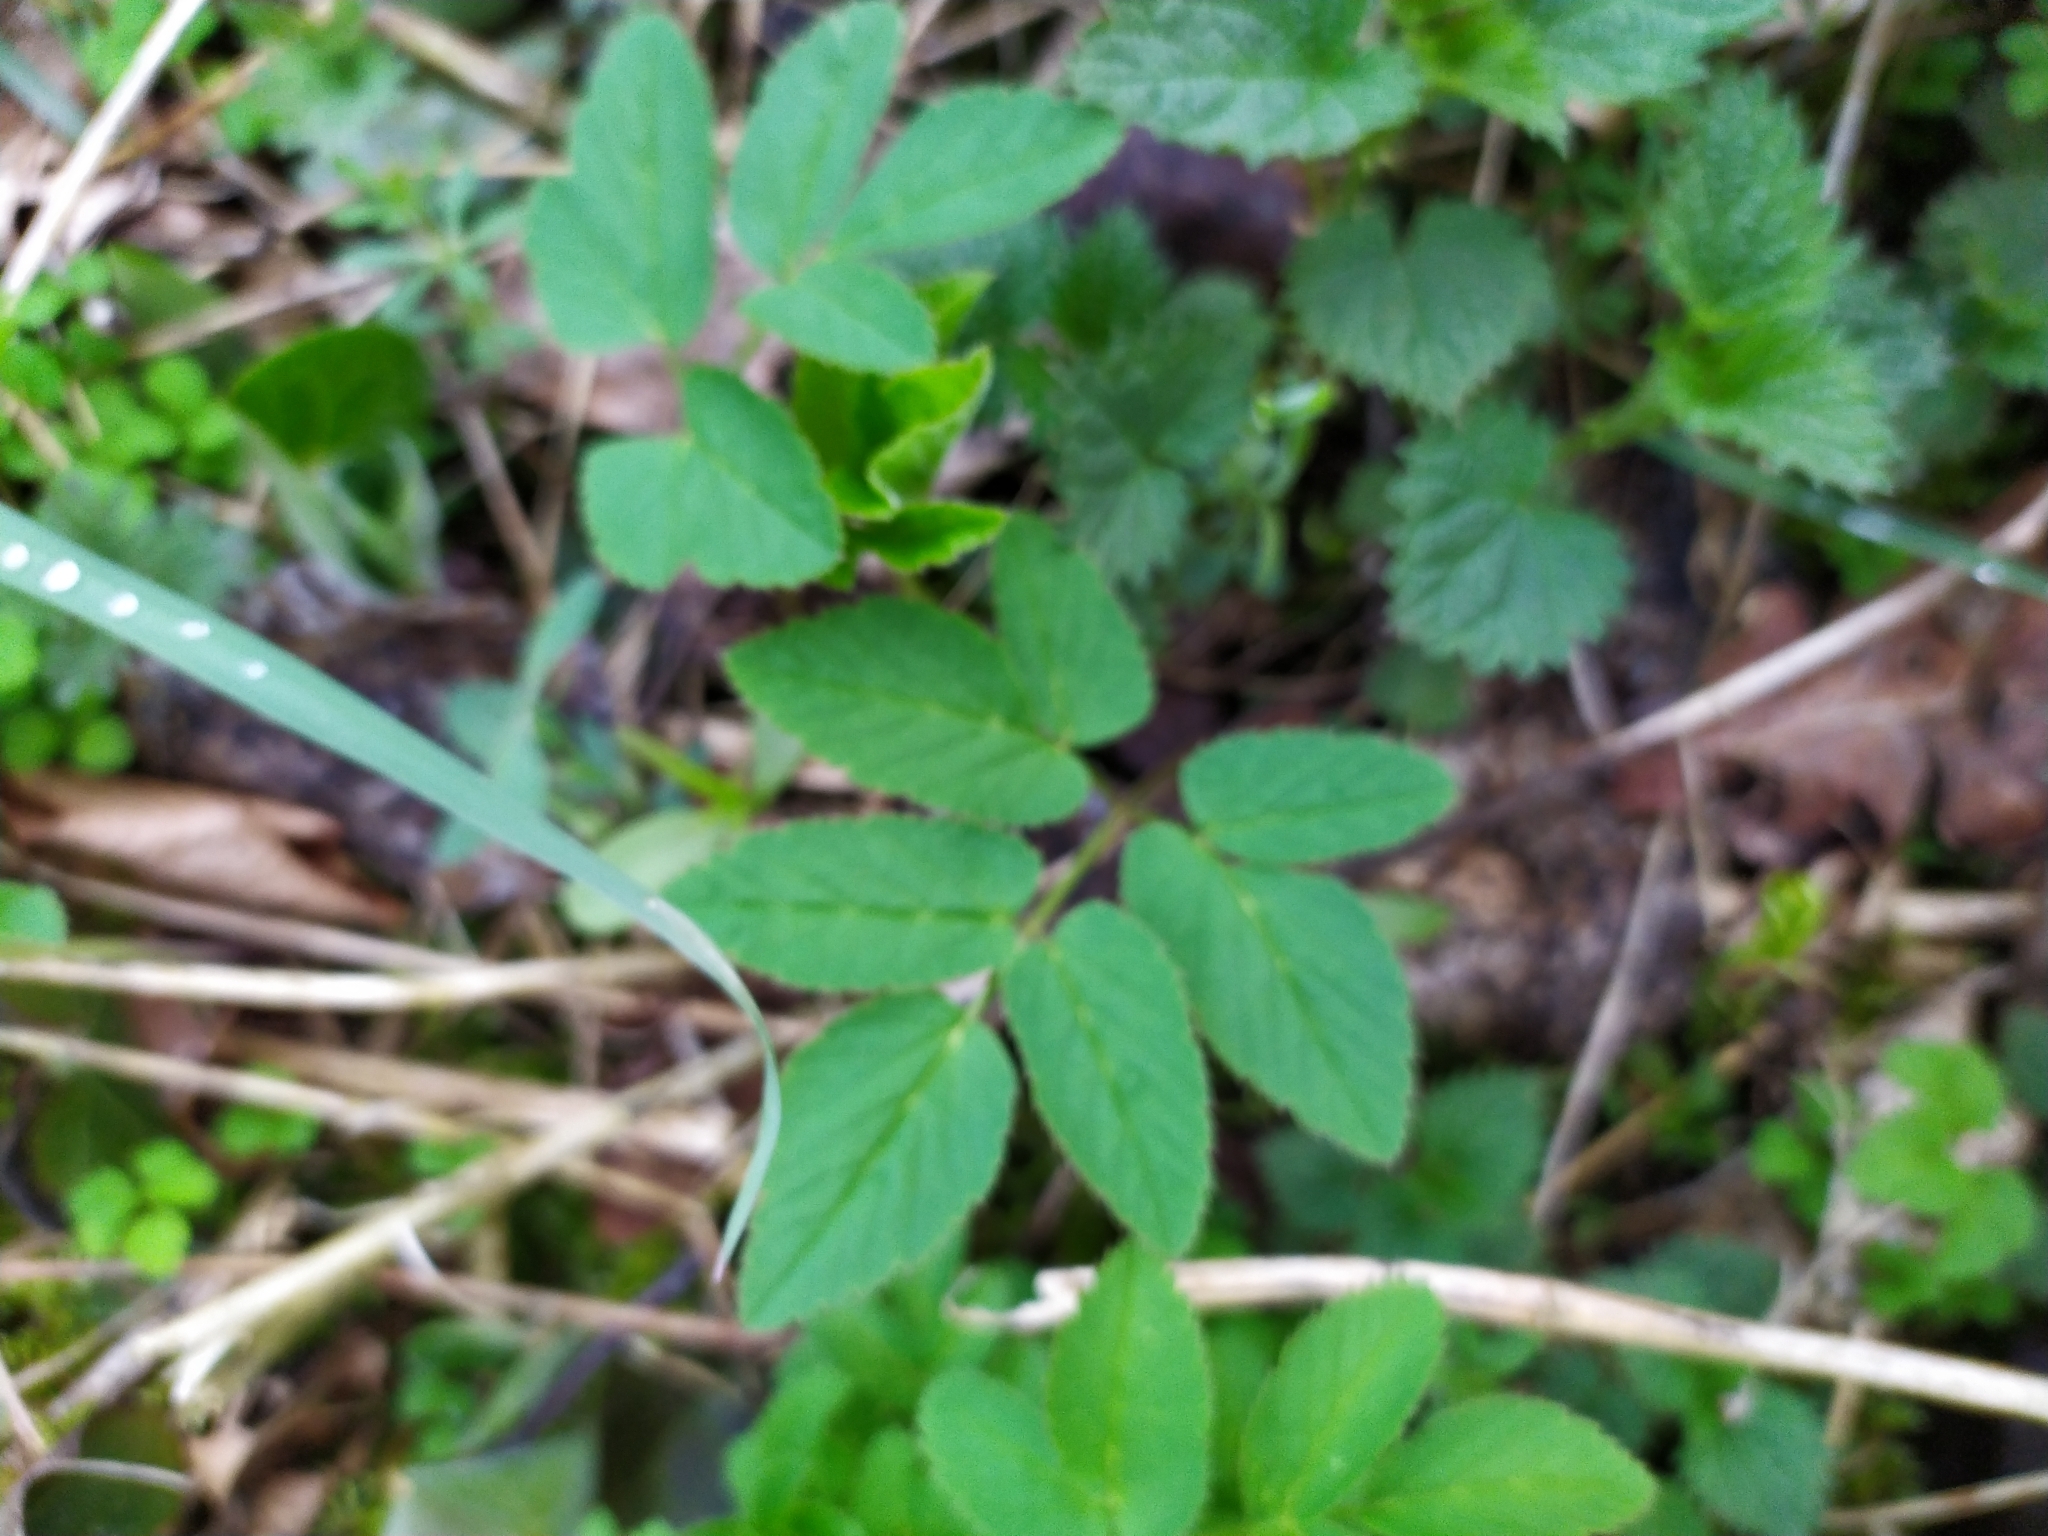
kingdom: Plantae
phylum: Tracheophyta
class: Magnoliopsida
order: Apiales
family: Apiaceae
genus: Aegopodium
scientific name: Aegopodium podagraria
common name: Ground-elder
